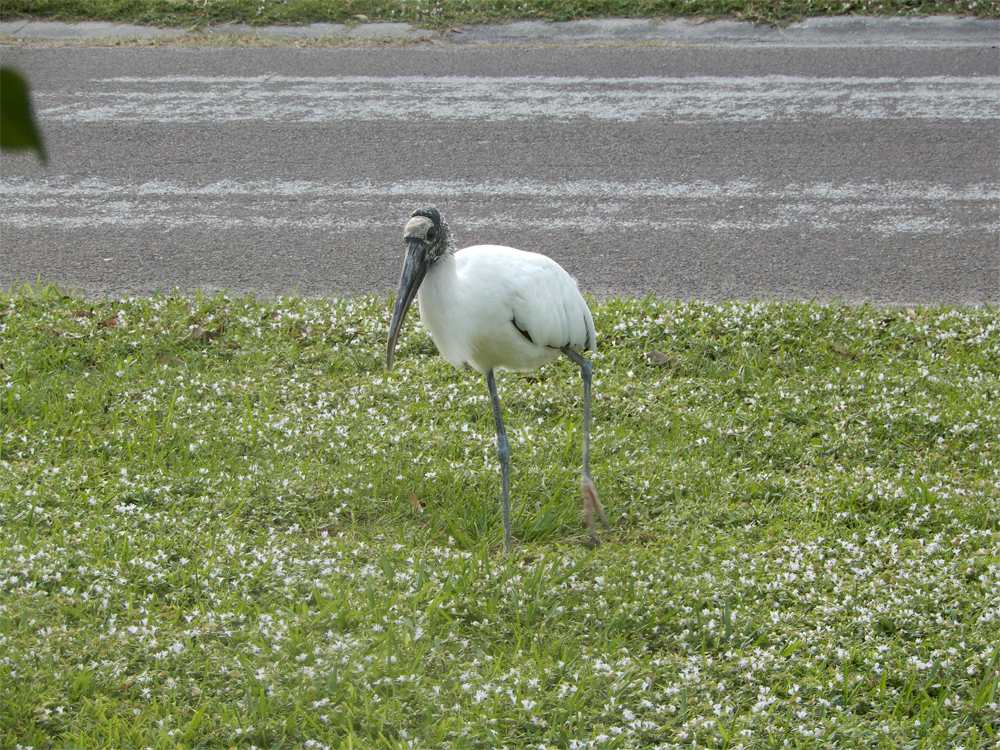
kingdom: Animalia
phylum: Chordata
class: Aves
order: Ciconiiformes
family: Ciconiidae
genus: Mycteria
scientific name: Mycteria americana
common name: Wood stork
